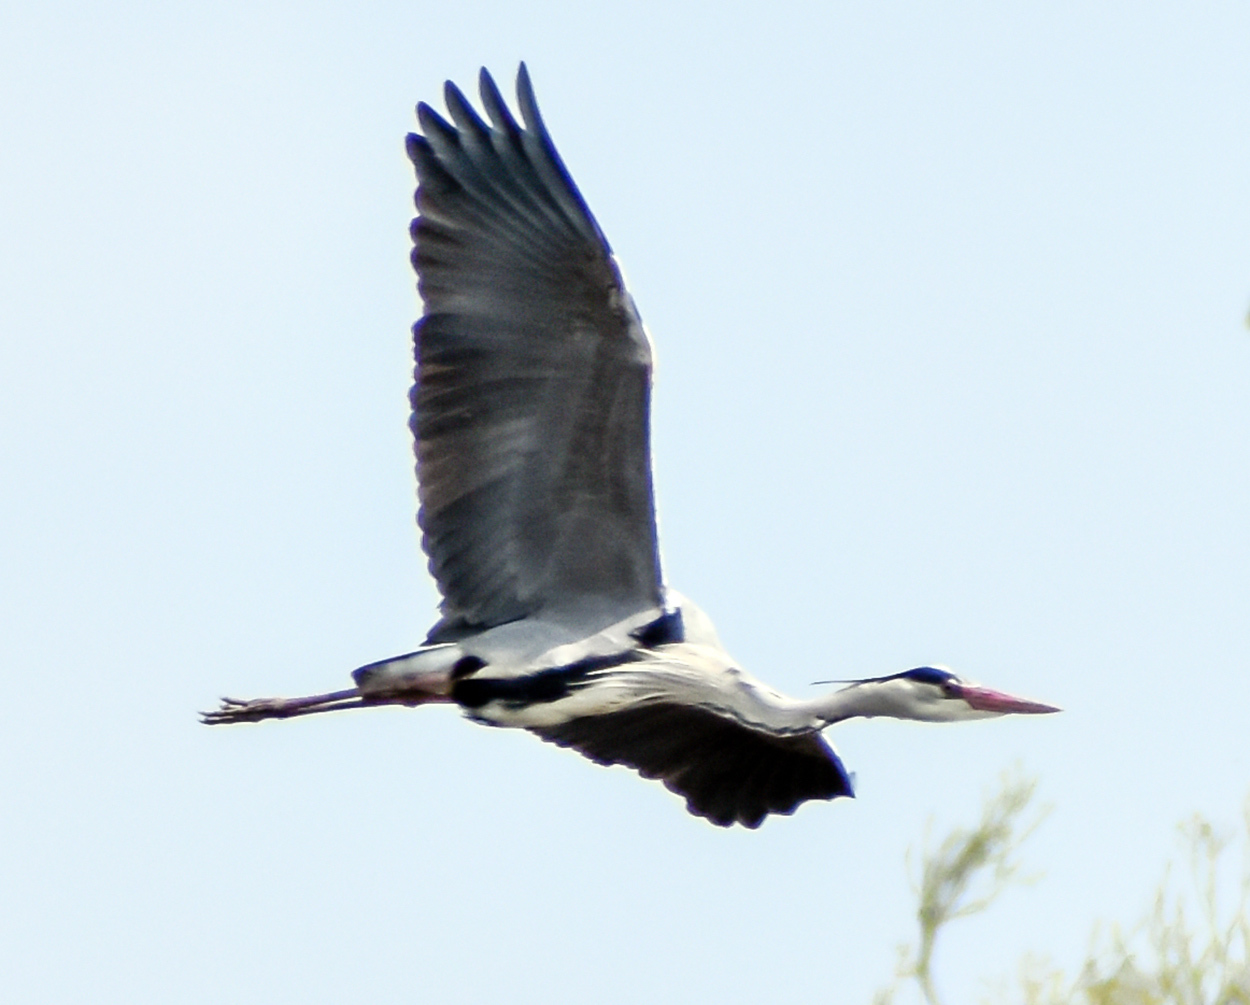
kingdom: Animalia
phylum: Chordata
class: Aves
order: Pelecaniformes
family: Ardeidae
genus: Ardea
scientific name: Ardea cinerea
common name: Grey heron
